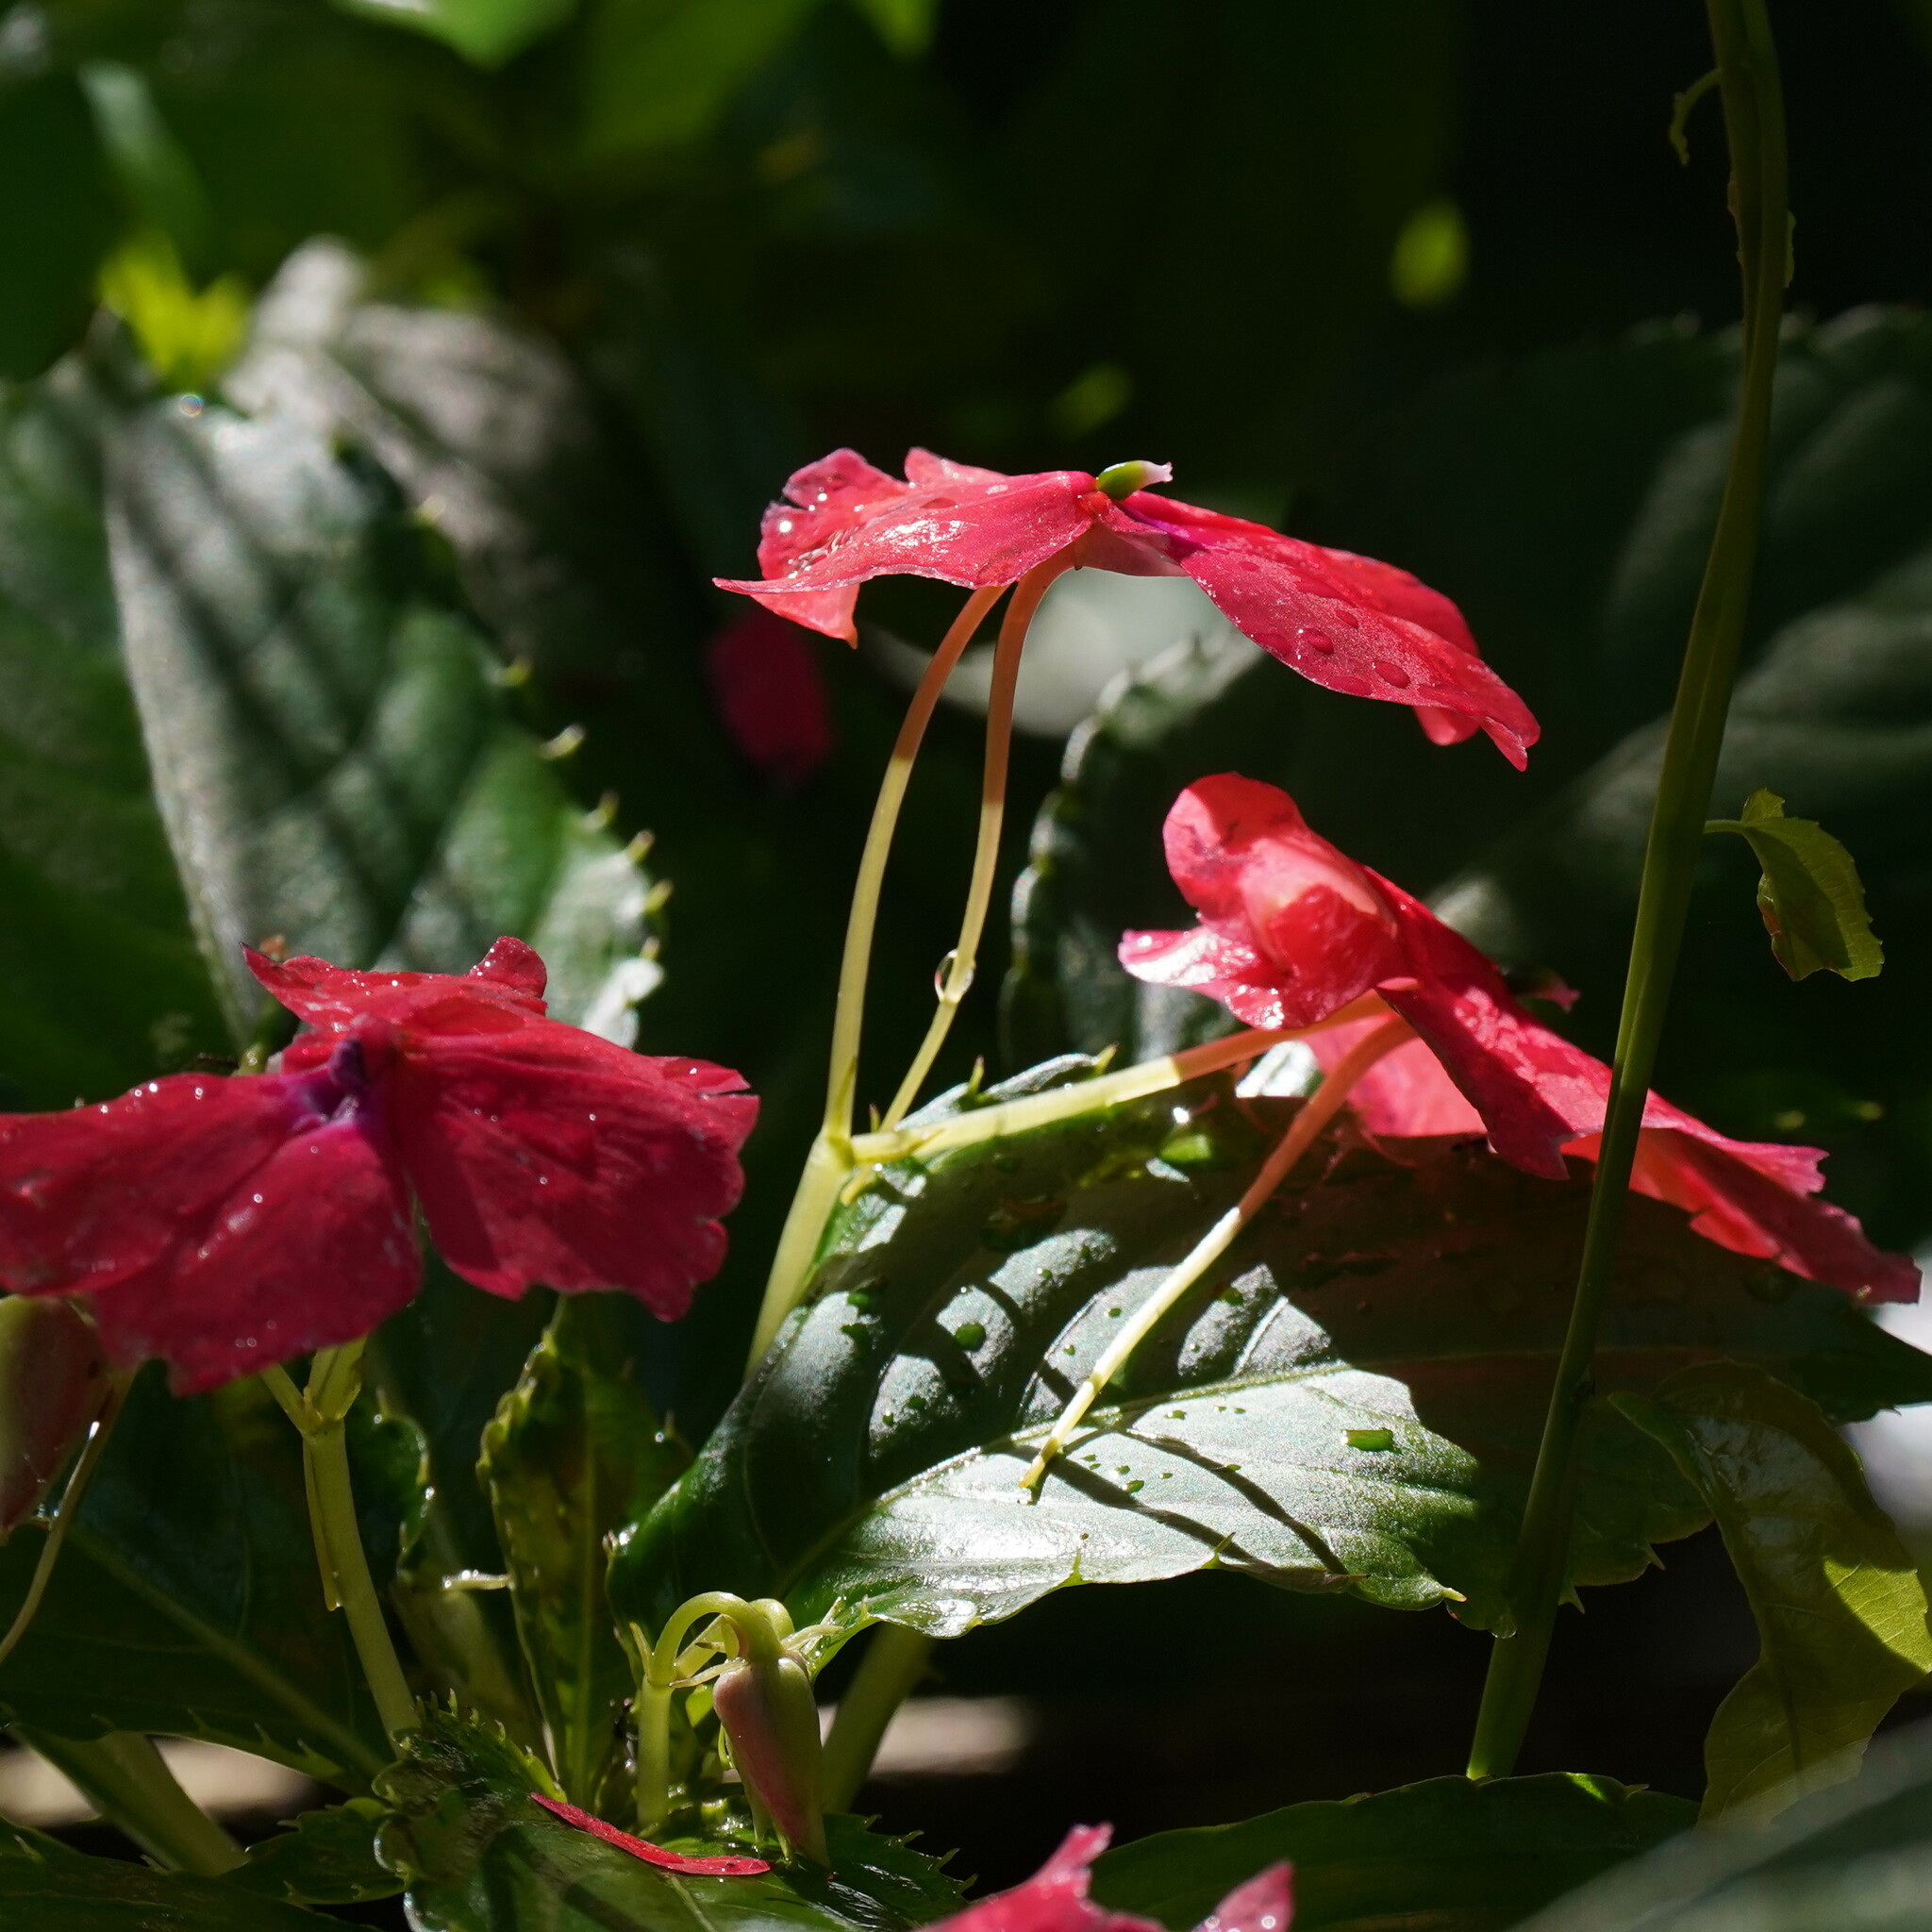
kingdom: Plantae
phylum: Tracheophyta
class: Magnoliopsida
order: Ericales
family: Balsaminaceae
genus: Impatiens
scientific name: Impatiens walleriana
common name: Buzzy lizzy
